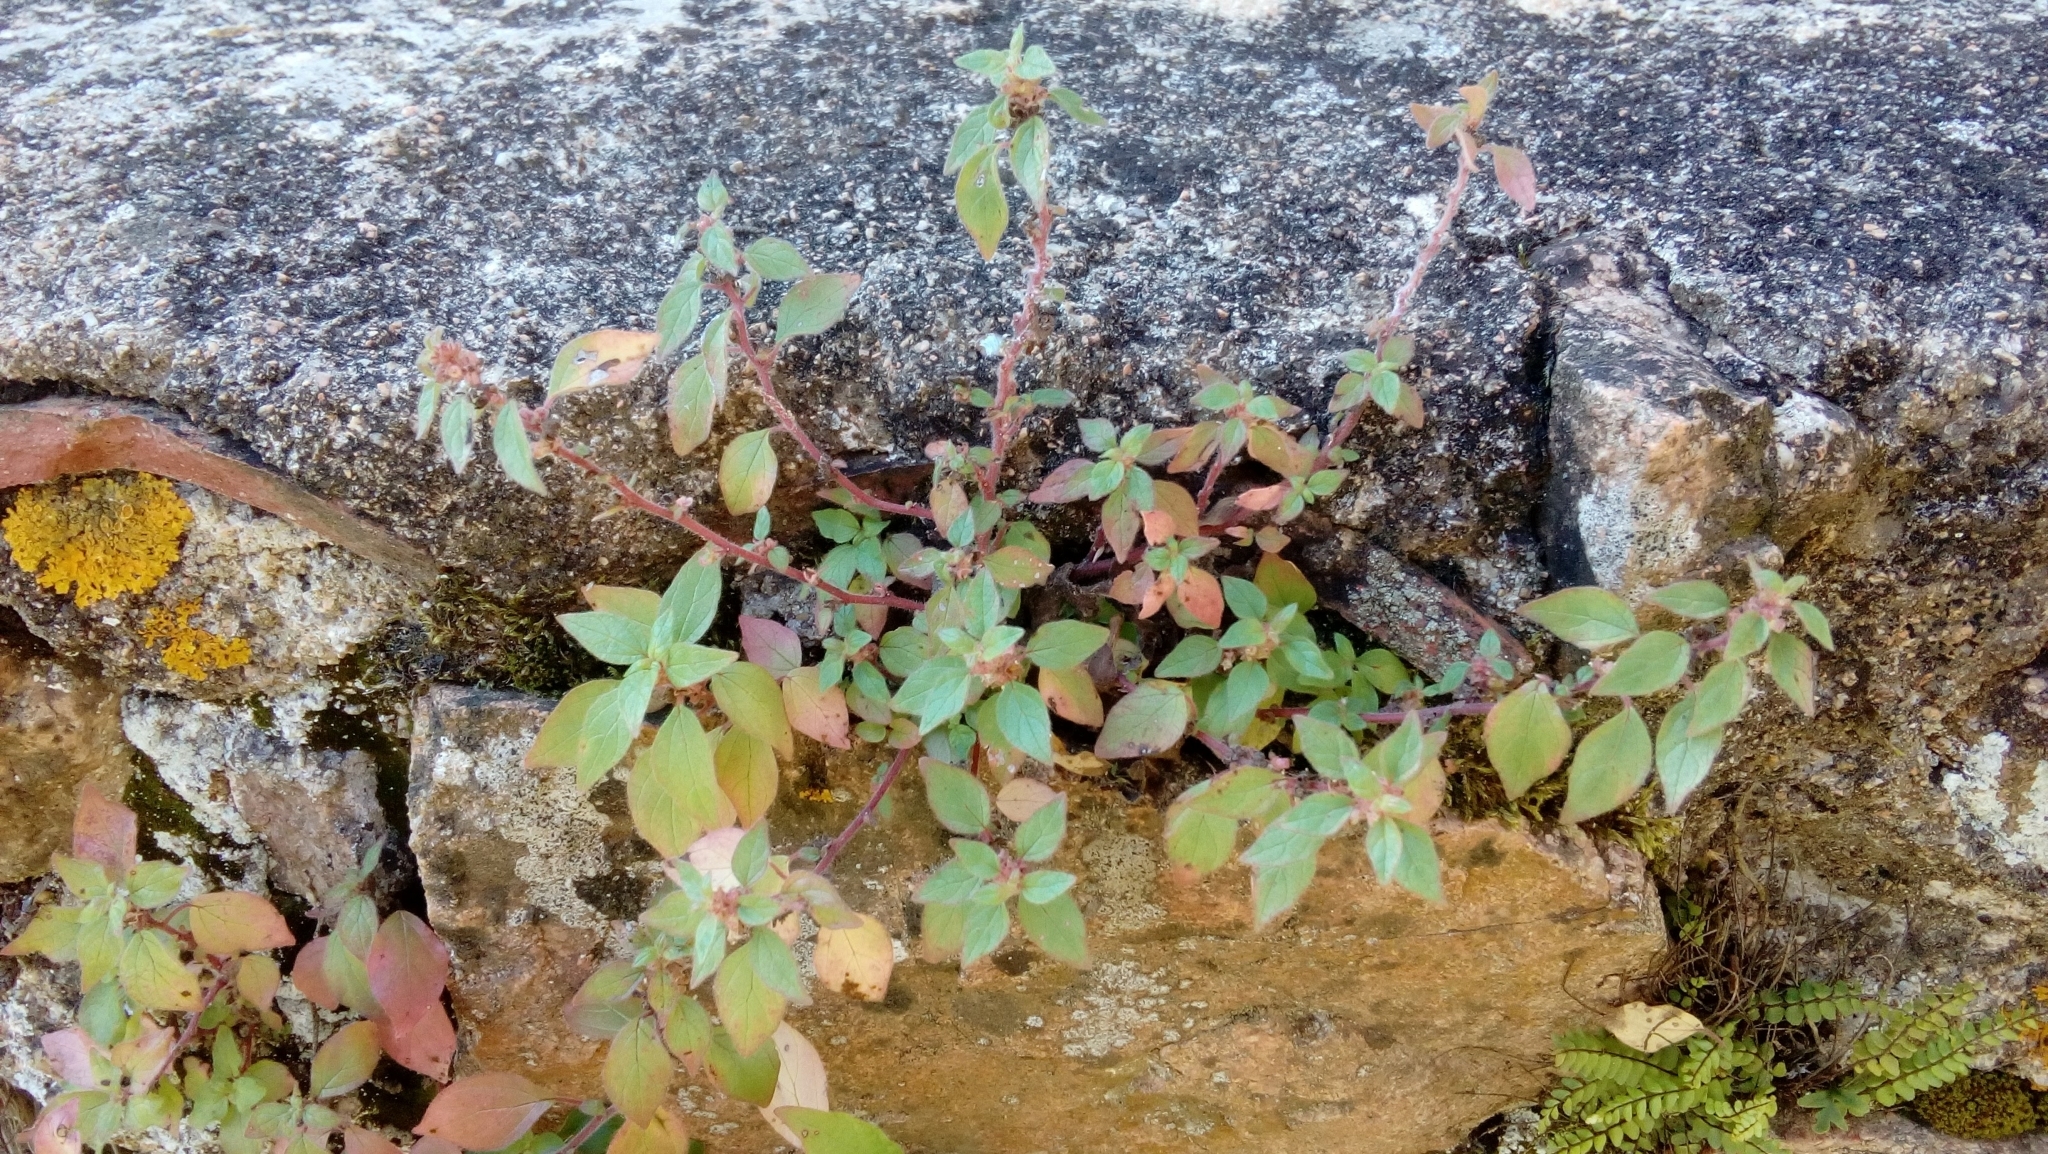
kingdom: Plantae
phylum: Tracheophyta
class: Magnoliopsida
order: Rosales
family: Urticaceae
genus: Parietaria
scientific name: Parietaria judaica
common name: Pellitory-of-the-wall
